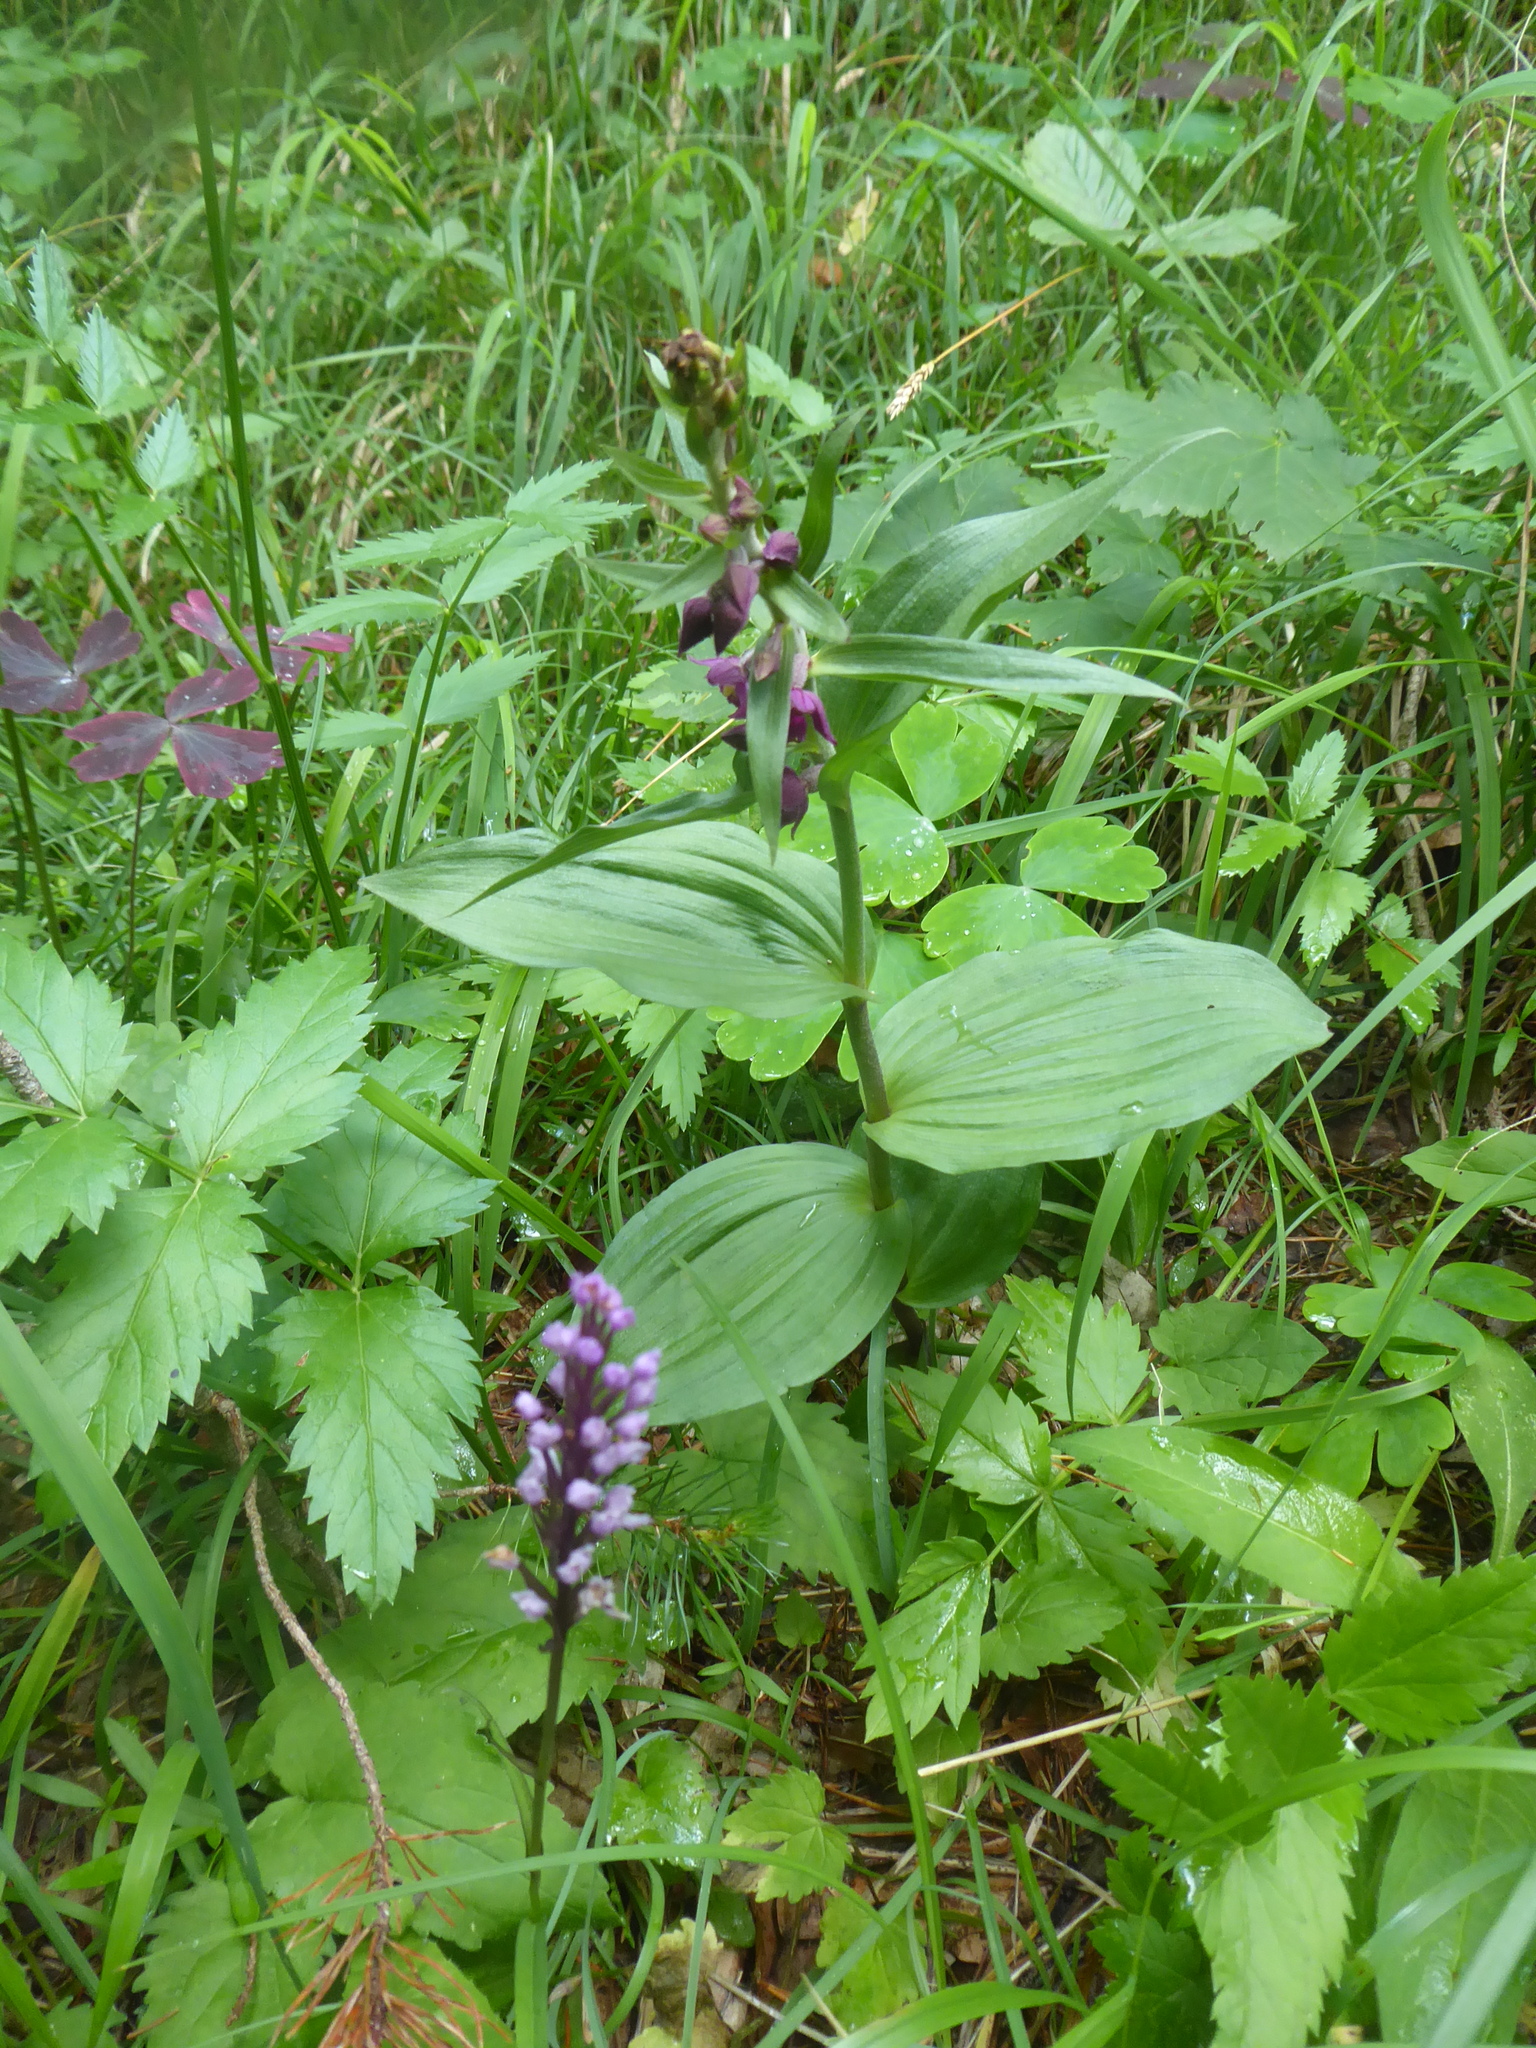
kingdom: Plantae
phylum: Tracheophyta
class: Liliopsida
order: Asparagales
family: Orchidaceae
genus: Epipactis
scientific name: Epipactis atrorubens
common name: Dark-red helleborine
